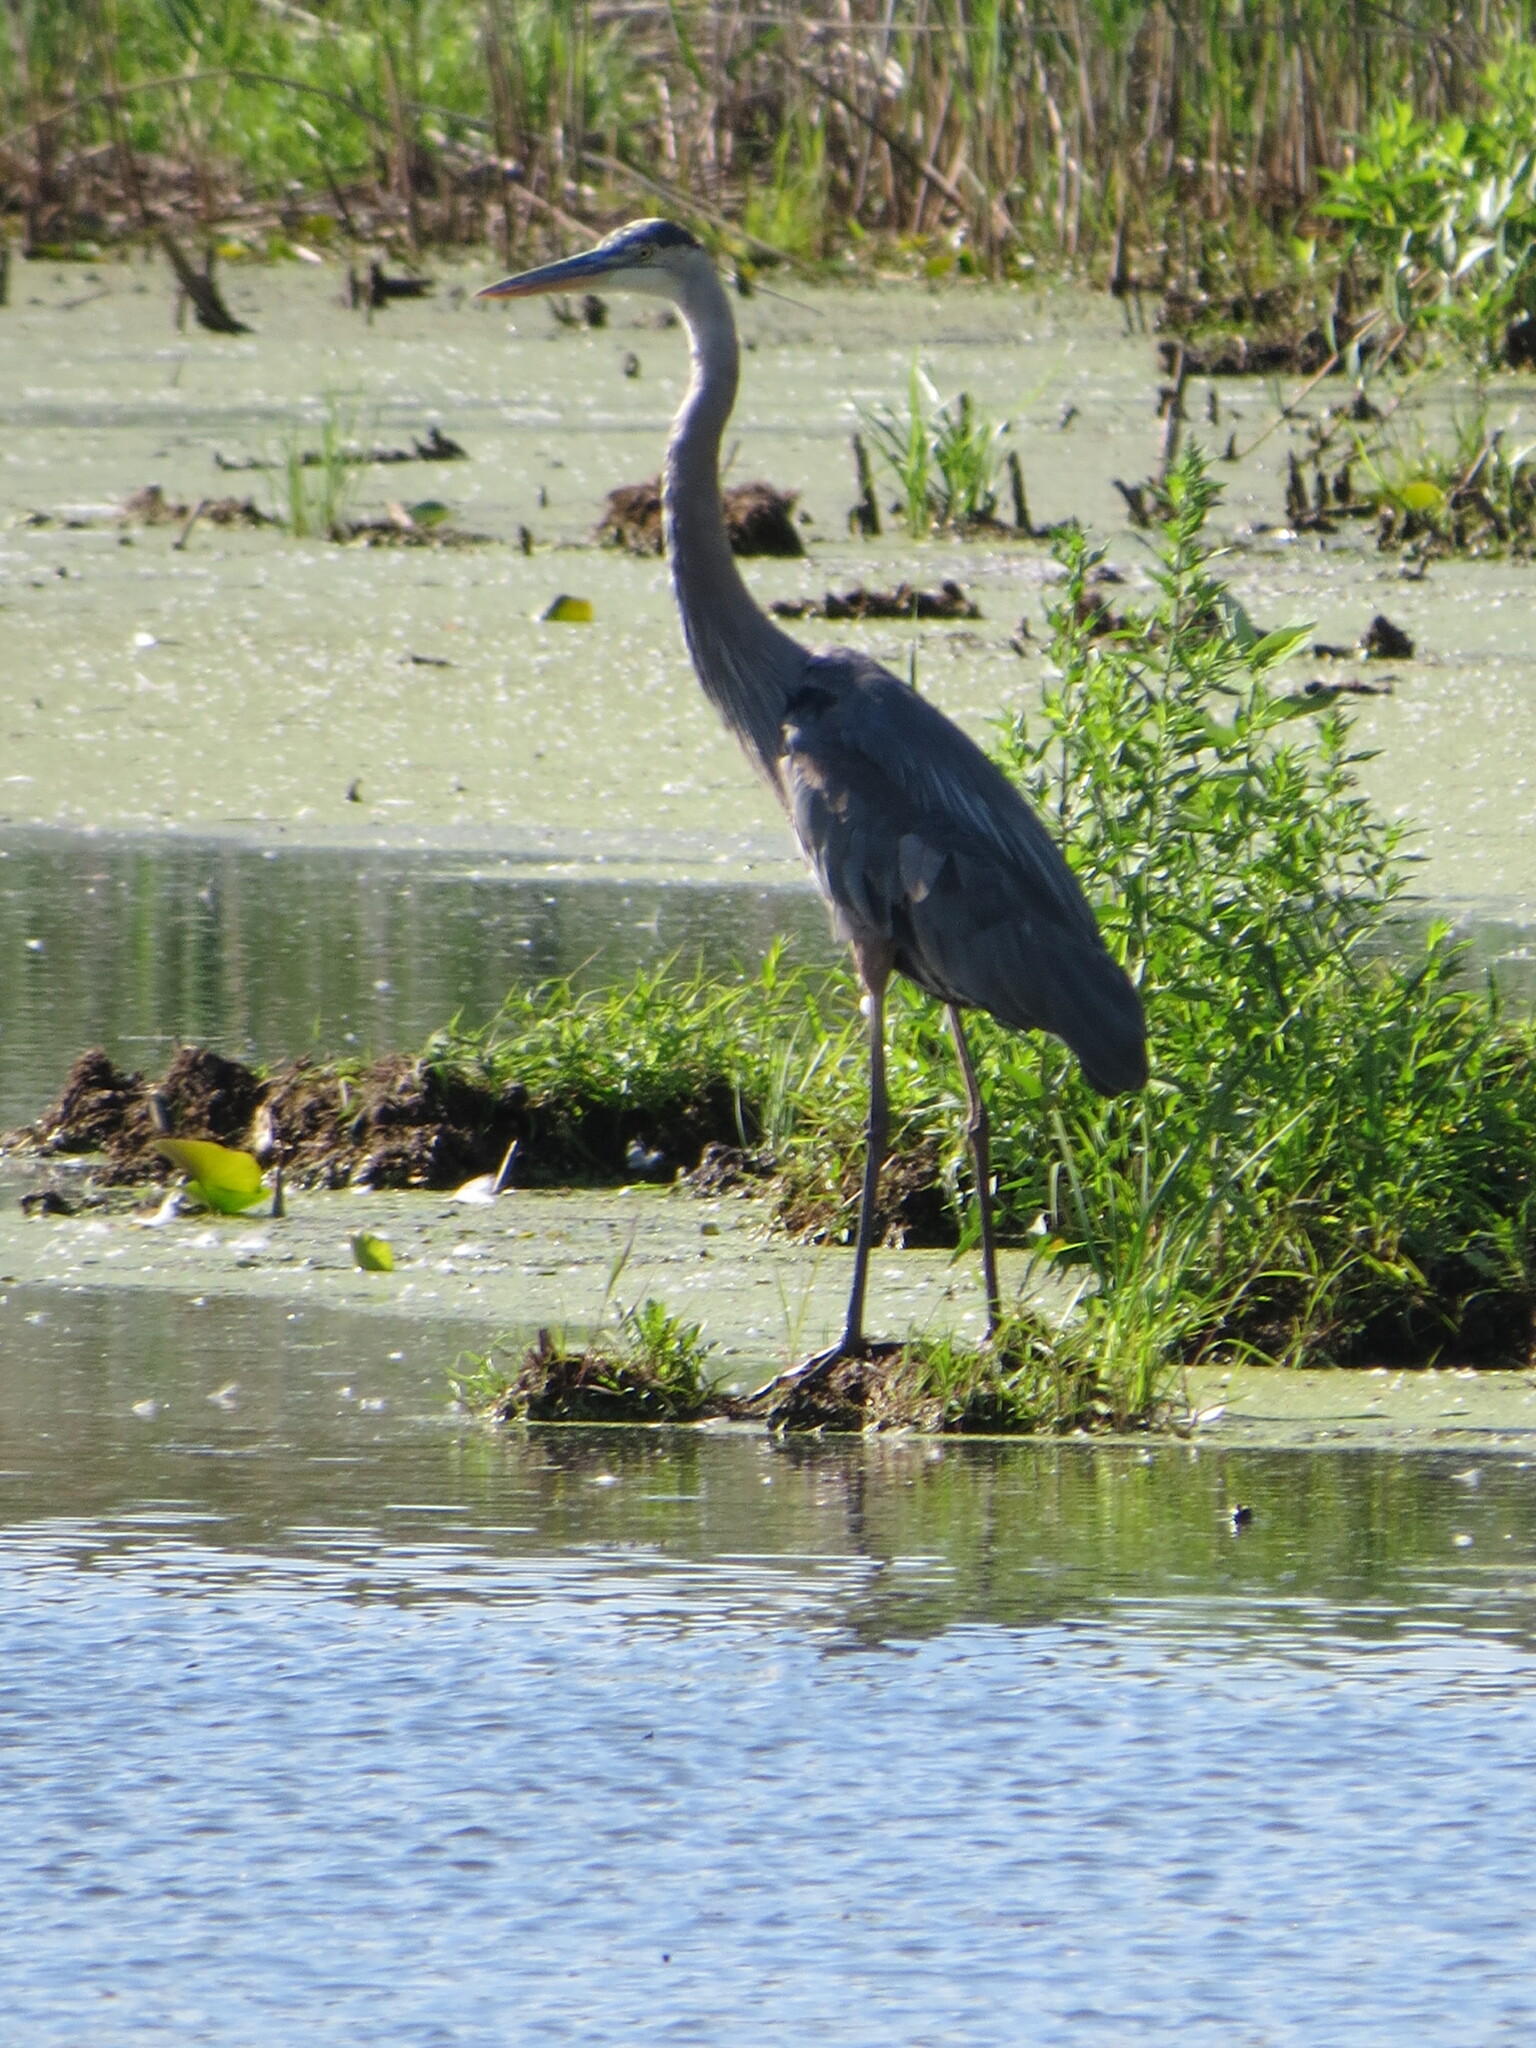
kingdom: Animalia
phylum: Chordata
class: Aves
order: Pelecaniformes
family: Ardeidae
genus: Ardea
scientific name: Ardea herodias
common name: Great blue heron
